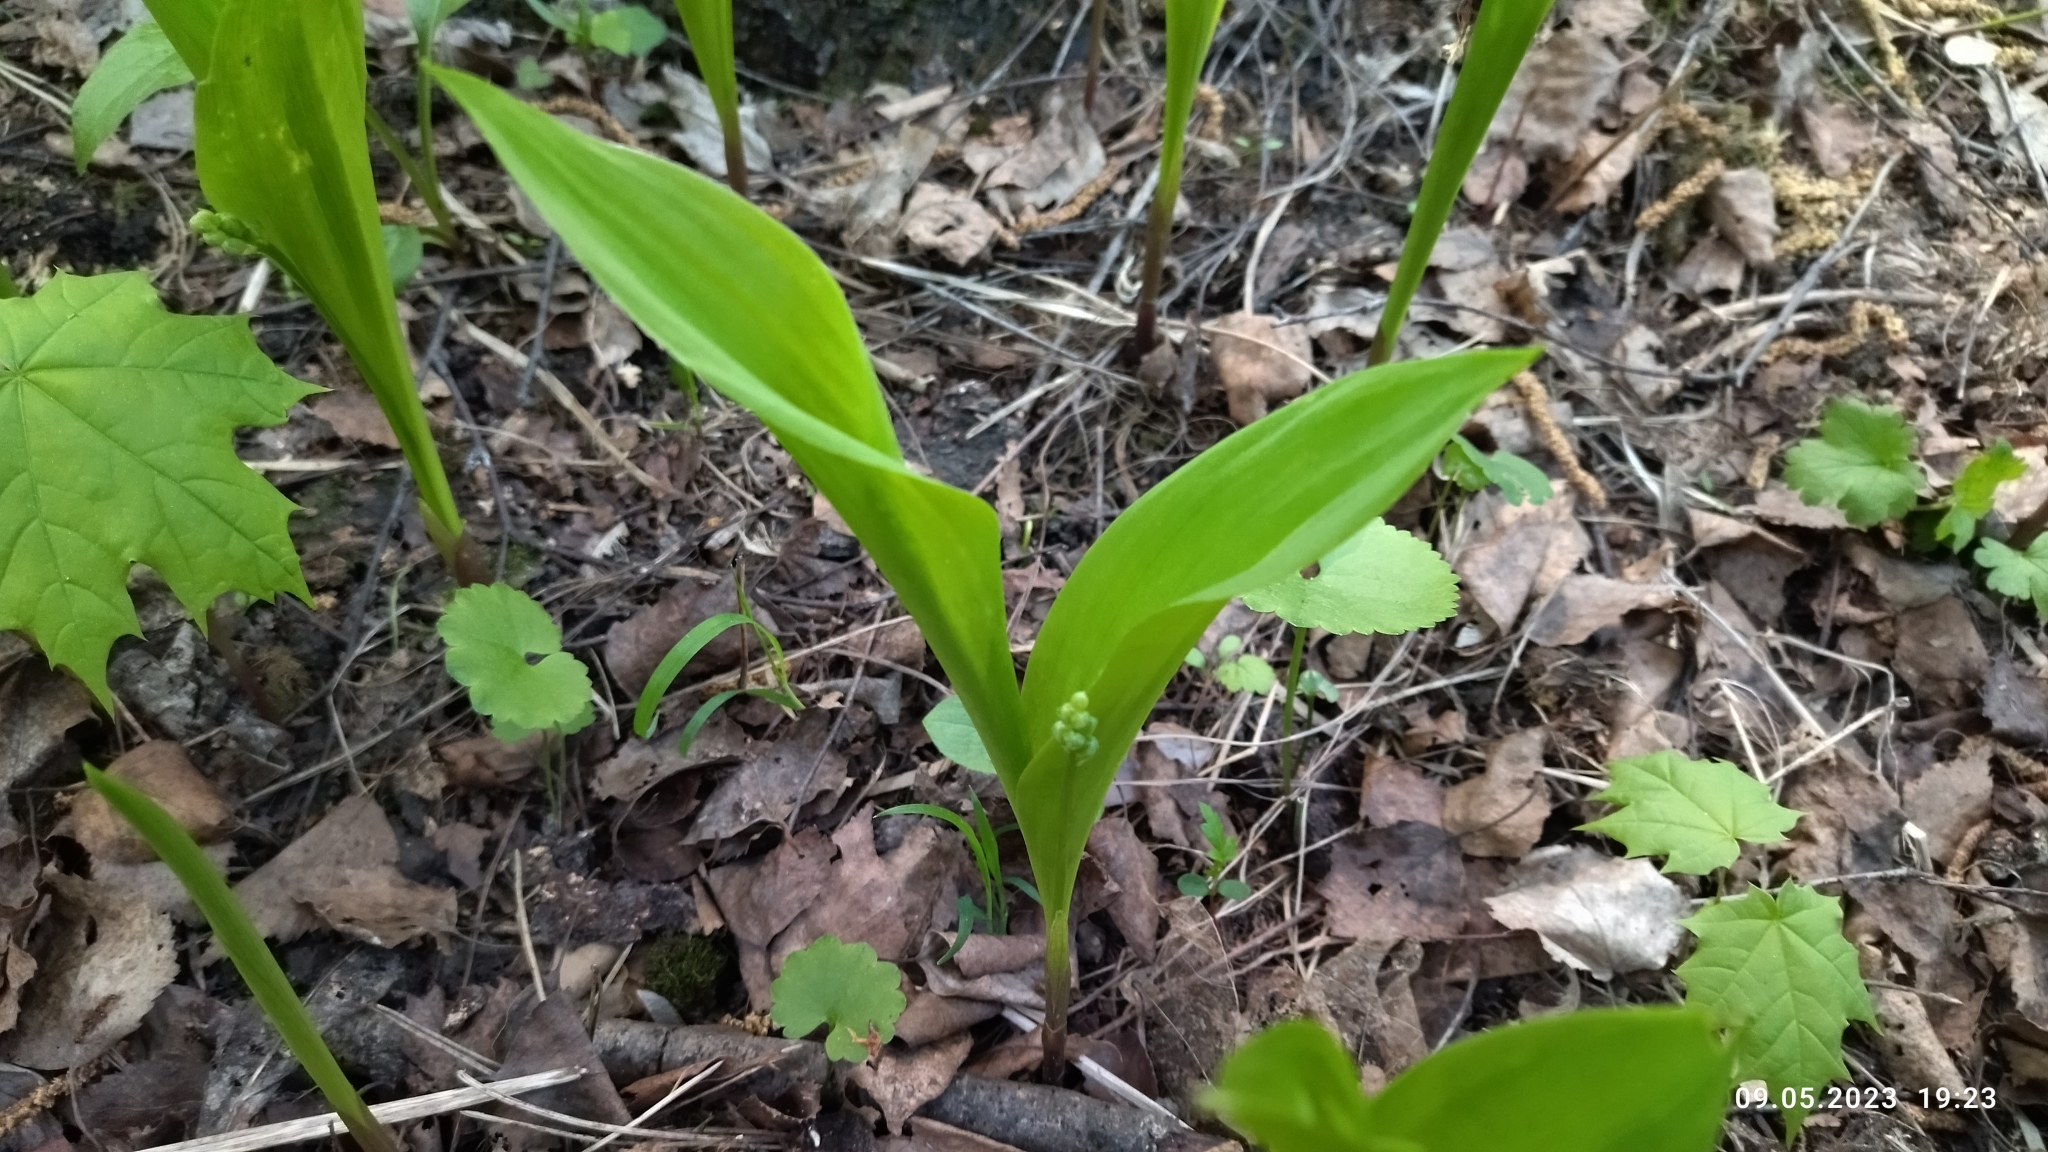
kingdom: Plantae
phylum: Tracheophyta
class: Liliopsida
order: Asparagales
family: Asparagaceae
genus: Convallaria
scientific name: Convallaria majalis
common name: Lily-of-the-valley
